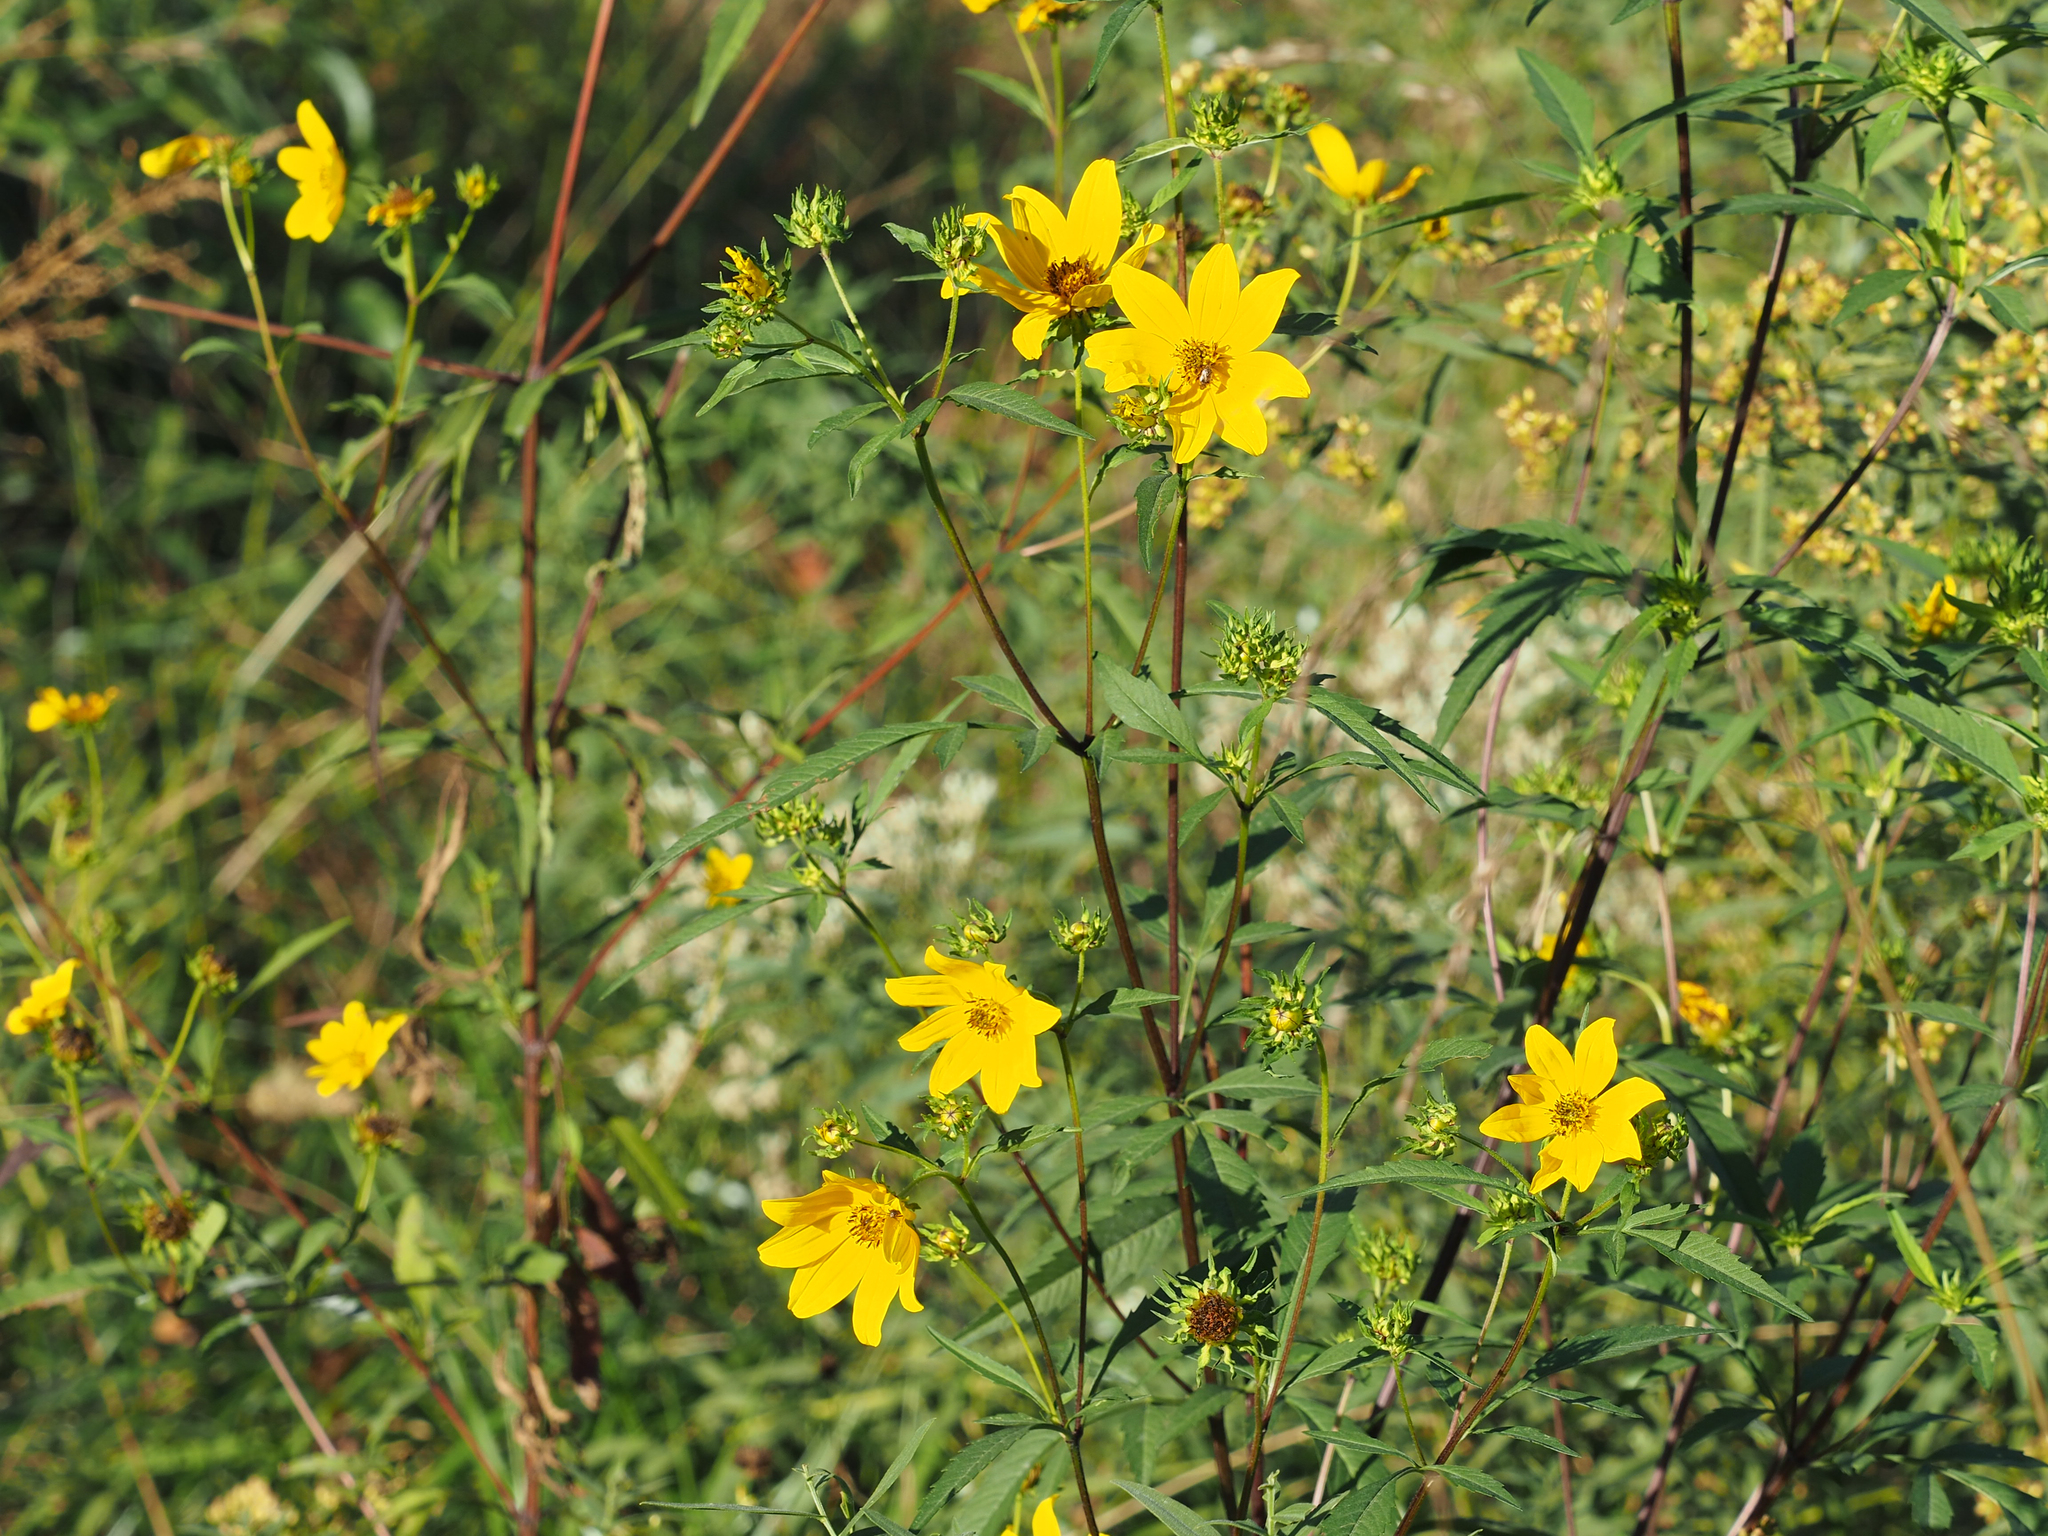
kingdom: Plantae
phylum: Tracheophyta
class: Magnoliopsida
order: Asterales
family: Asteraceae
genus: Bidens
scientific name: Bidens aristosa
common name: Western tickseed
